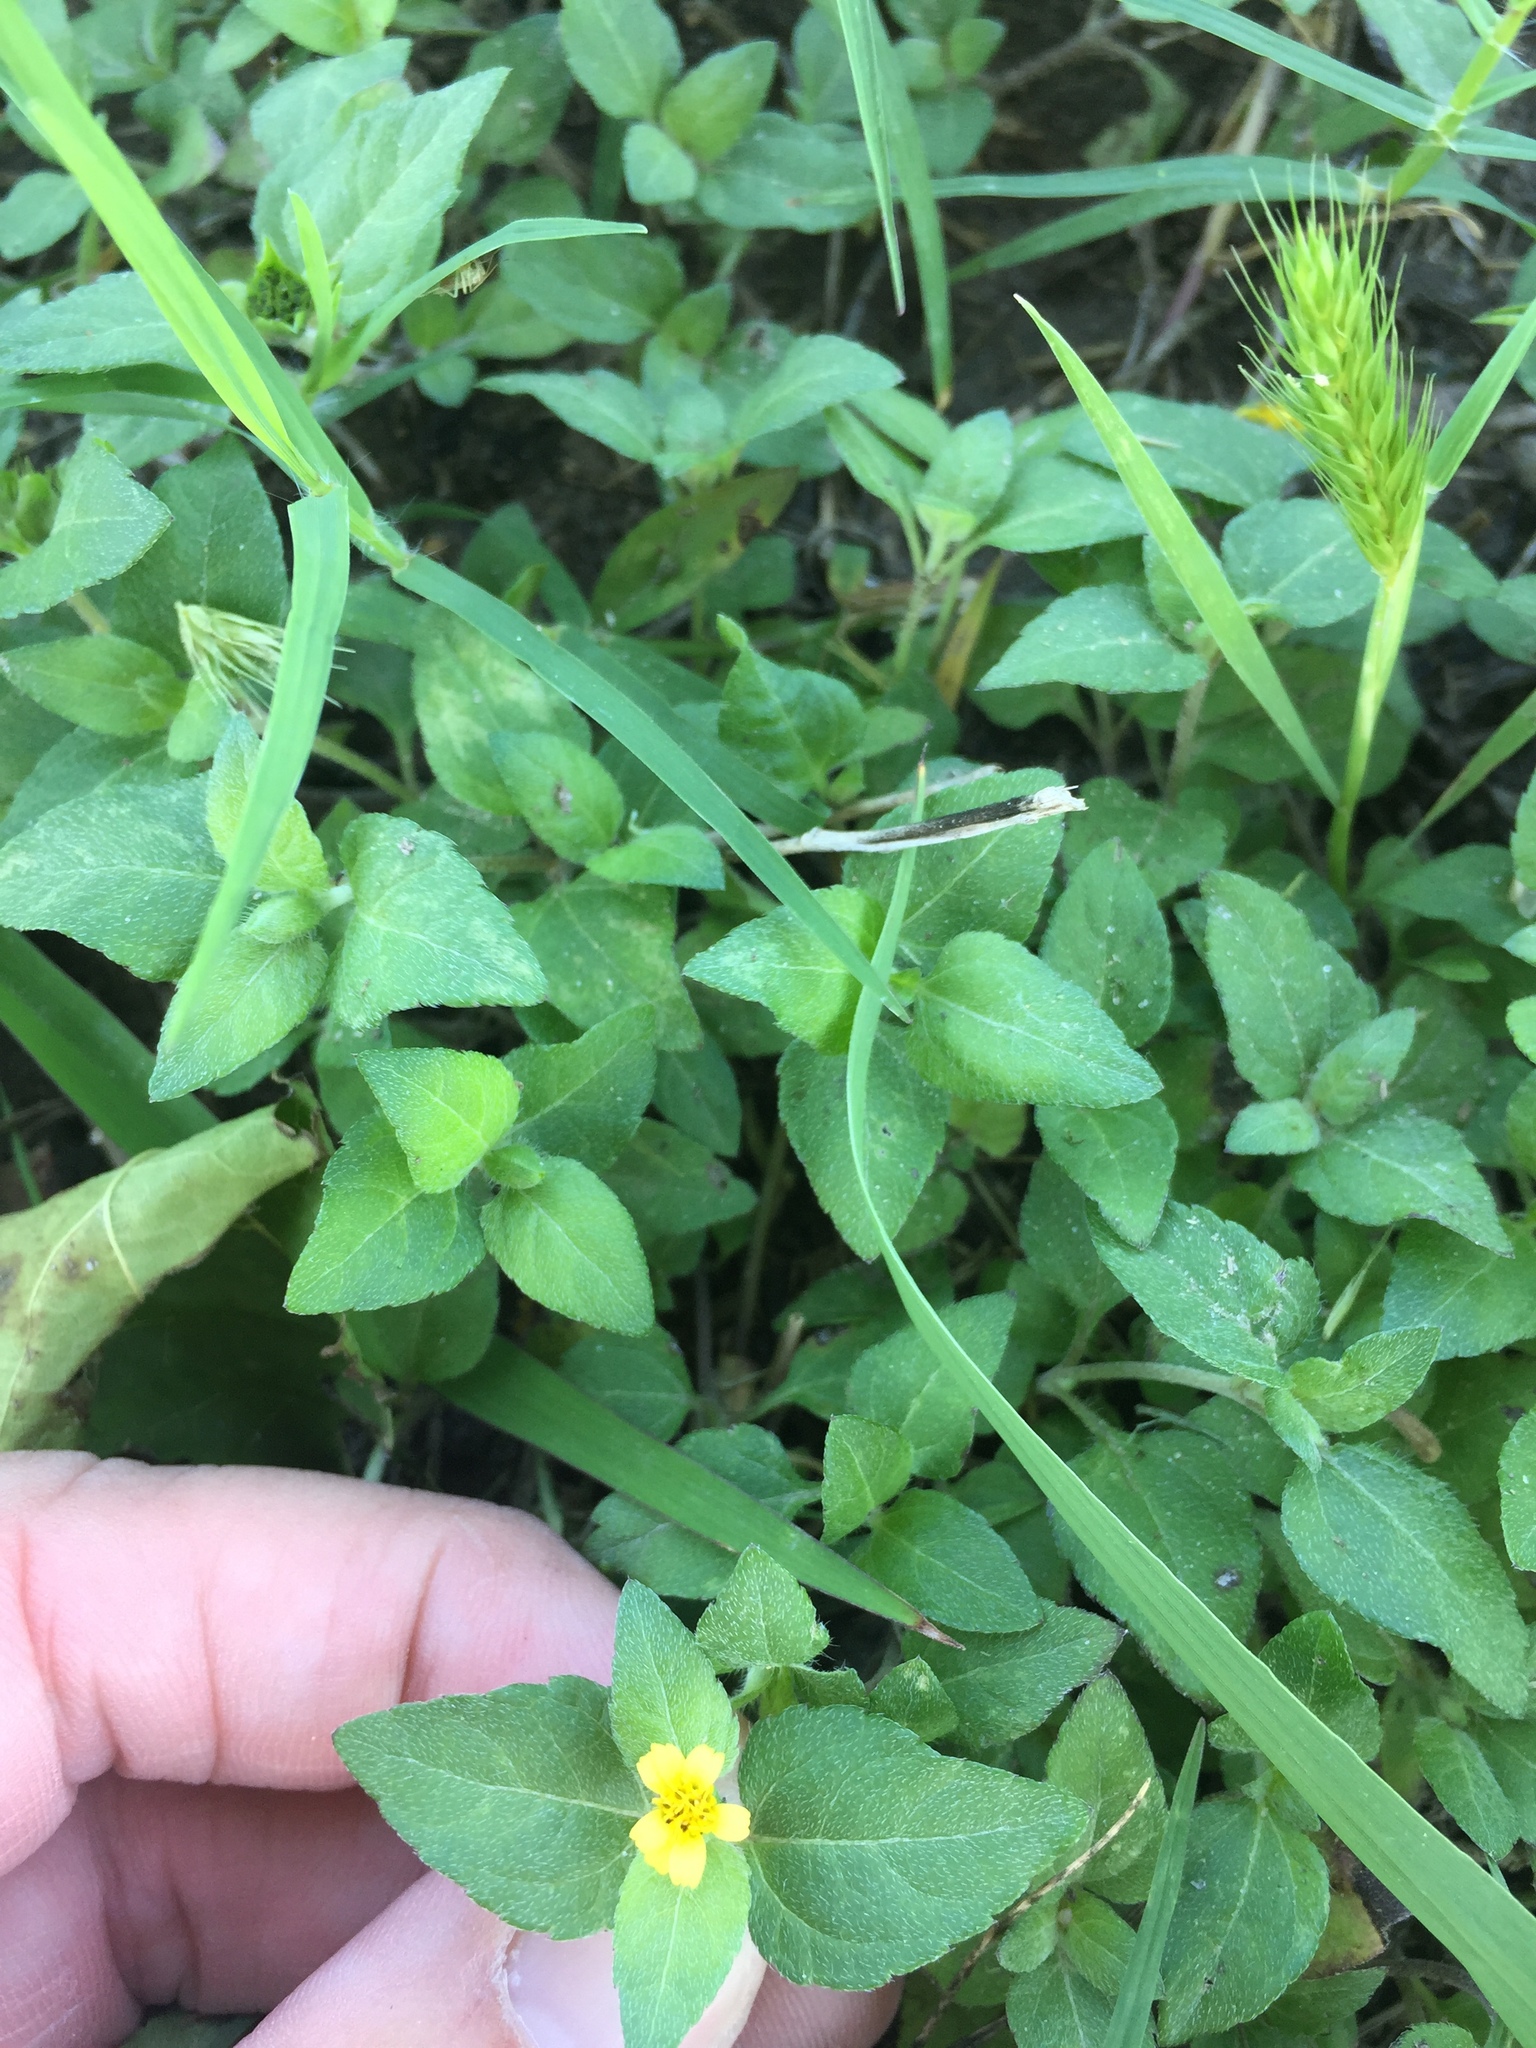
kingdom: Plantae
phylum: Tracheophyta
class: Magnoliopsida
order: Asterales
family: Asteraceae
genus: Calyptocarpus
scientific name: Calyptocarpus vialis
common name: Straggler daisy
